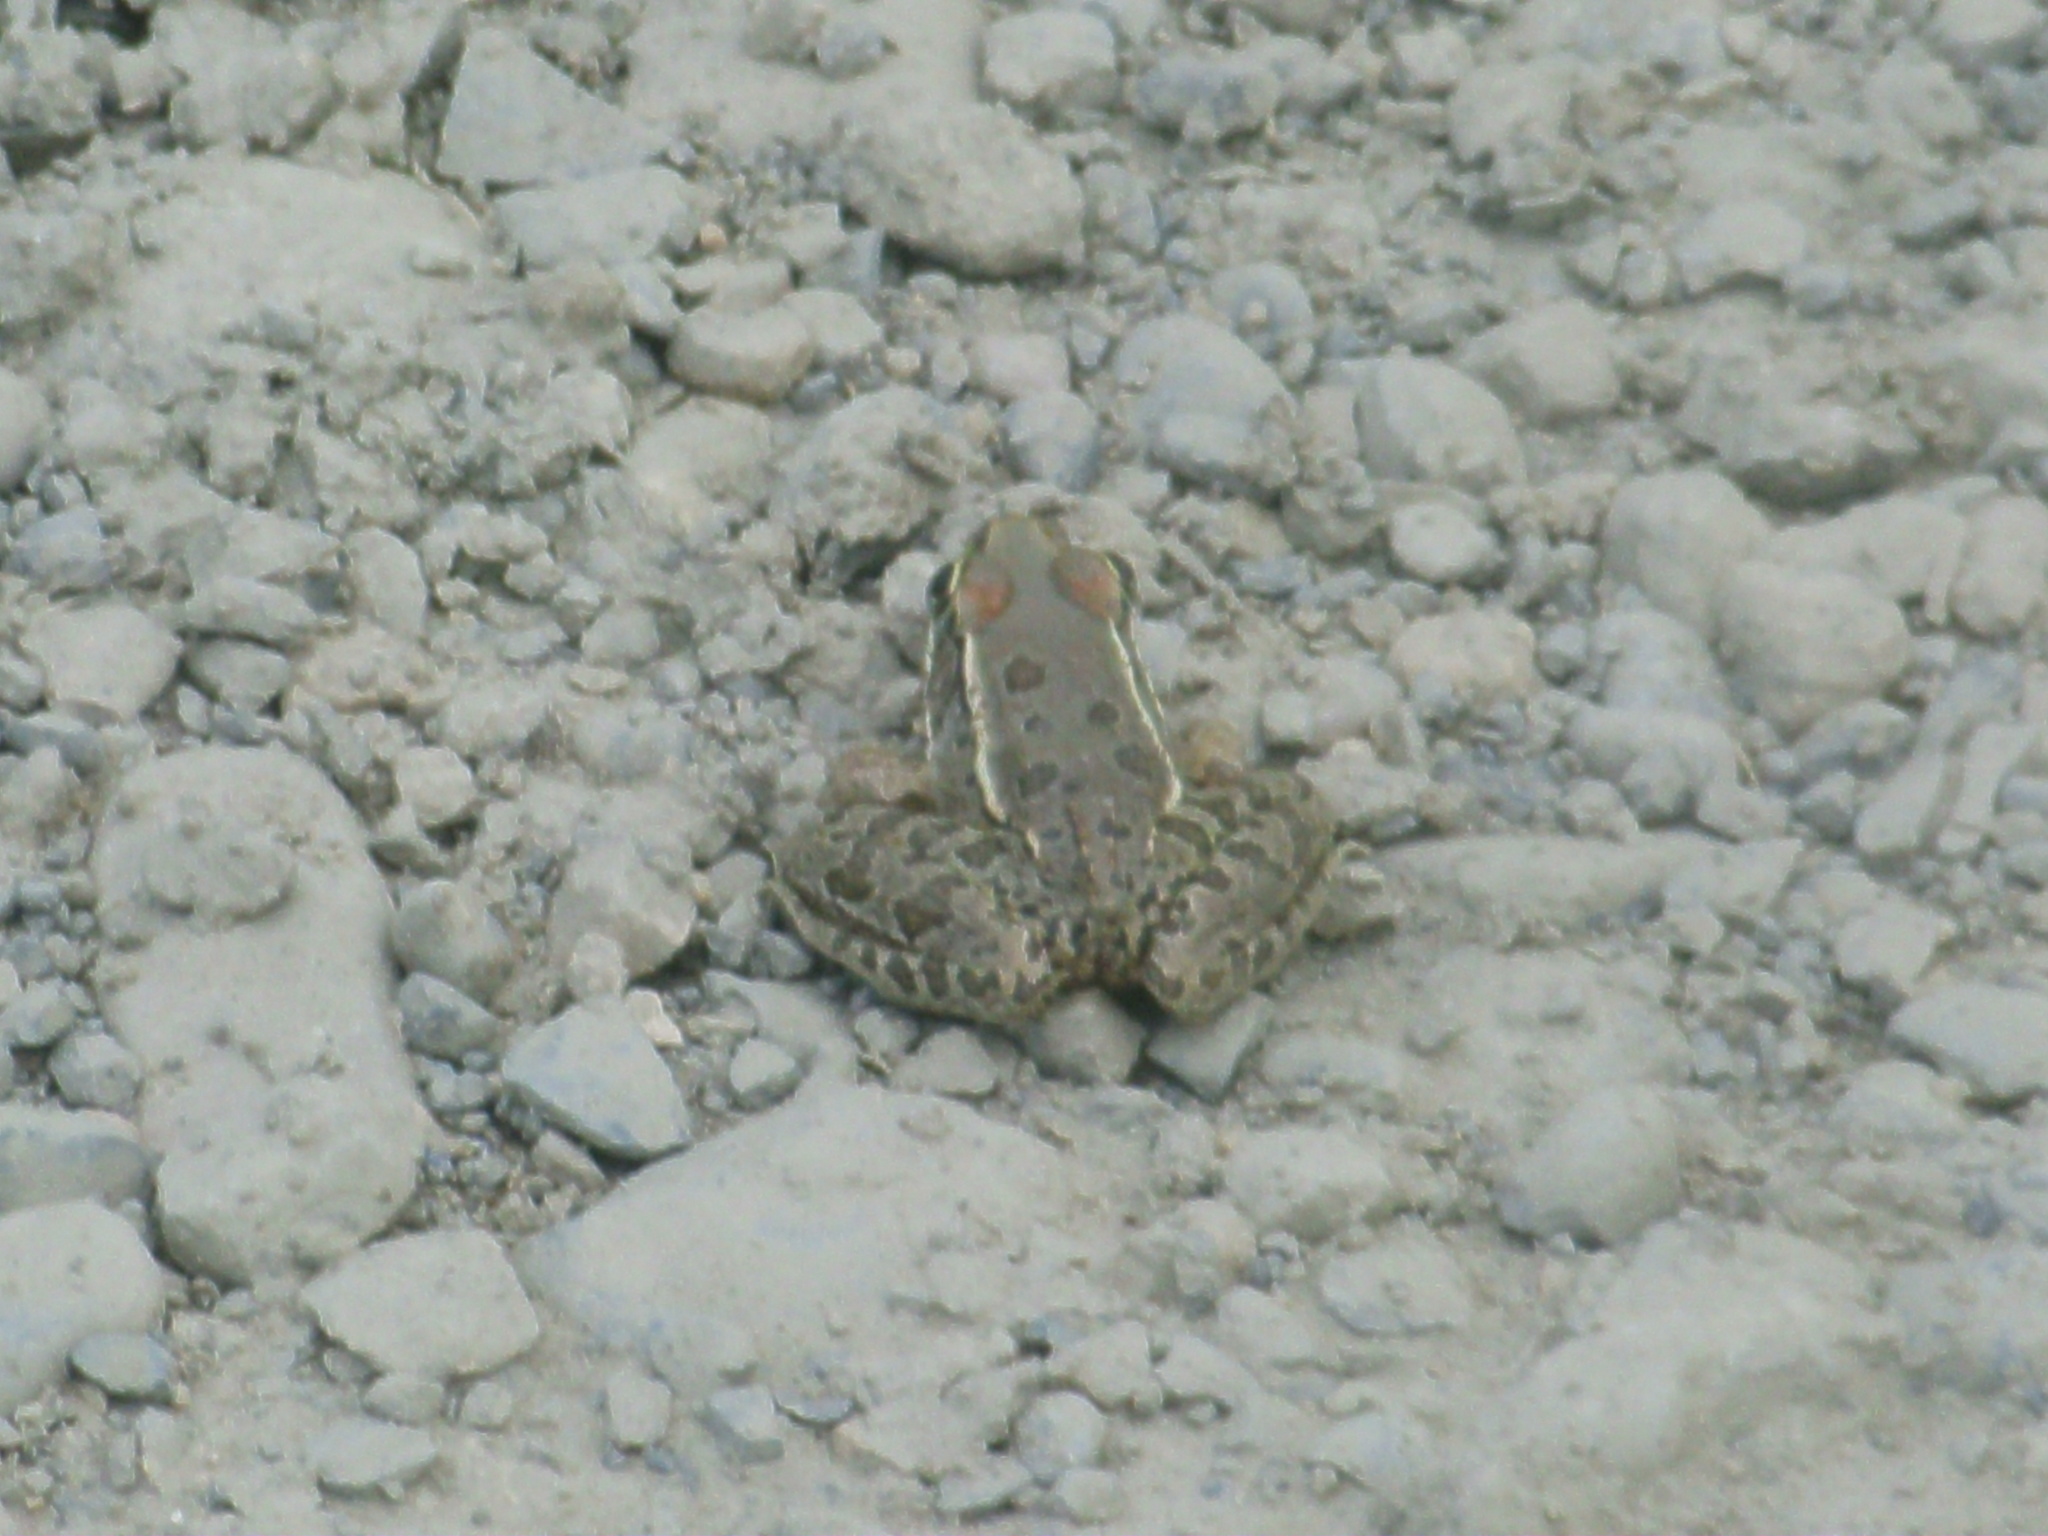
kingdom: Animalia
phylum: Chordata
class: Amphibia
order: Anura
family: Ranidae
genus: Lithobates
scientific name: Lithobates berlandieri
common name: Rio grande leopard frog
